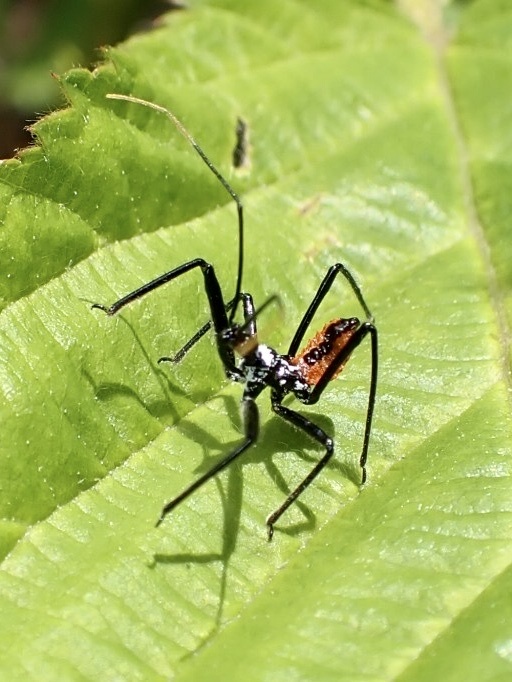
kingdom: Animalia
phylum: Arthropoda
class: Insecta
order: Hemiptera
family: Reduviidae
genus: Arilus
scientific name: Arilus cristatus
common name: North american wheel bug
